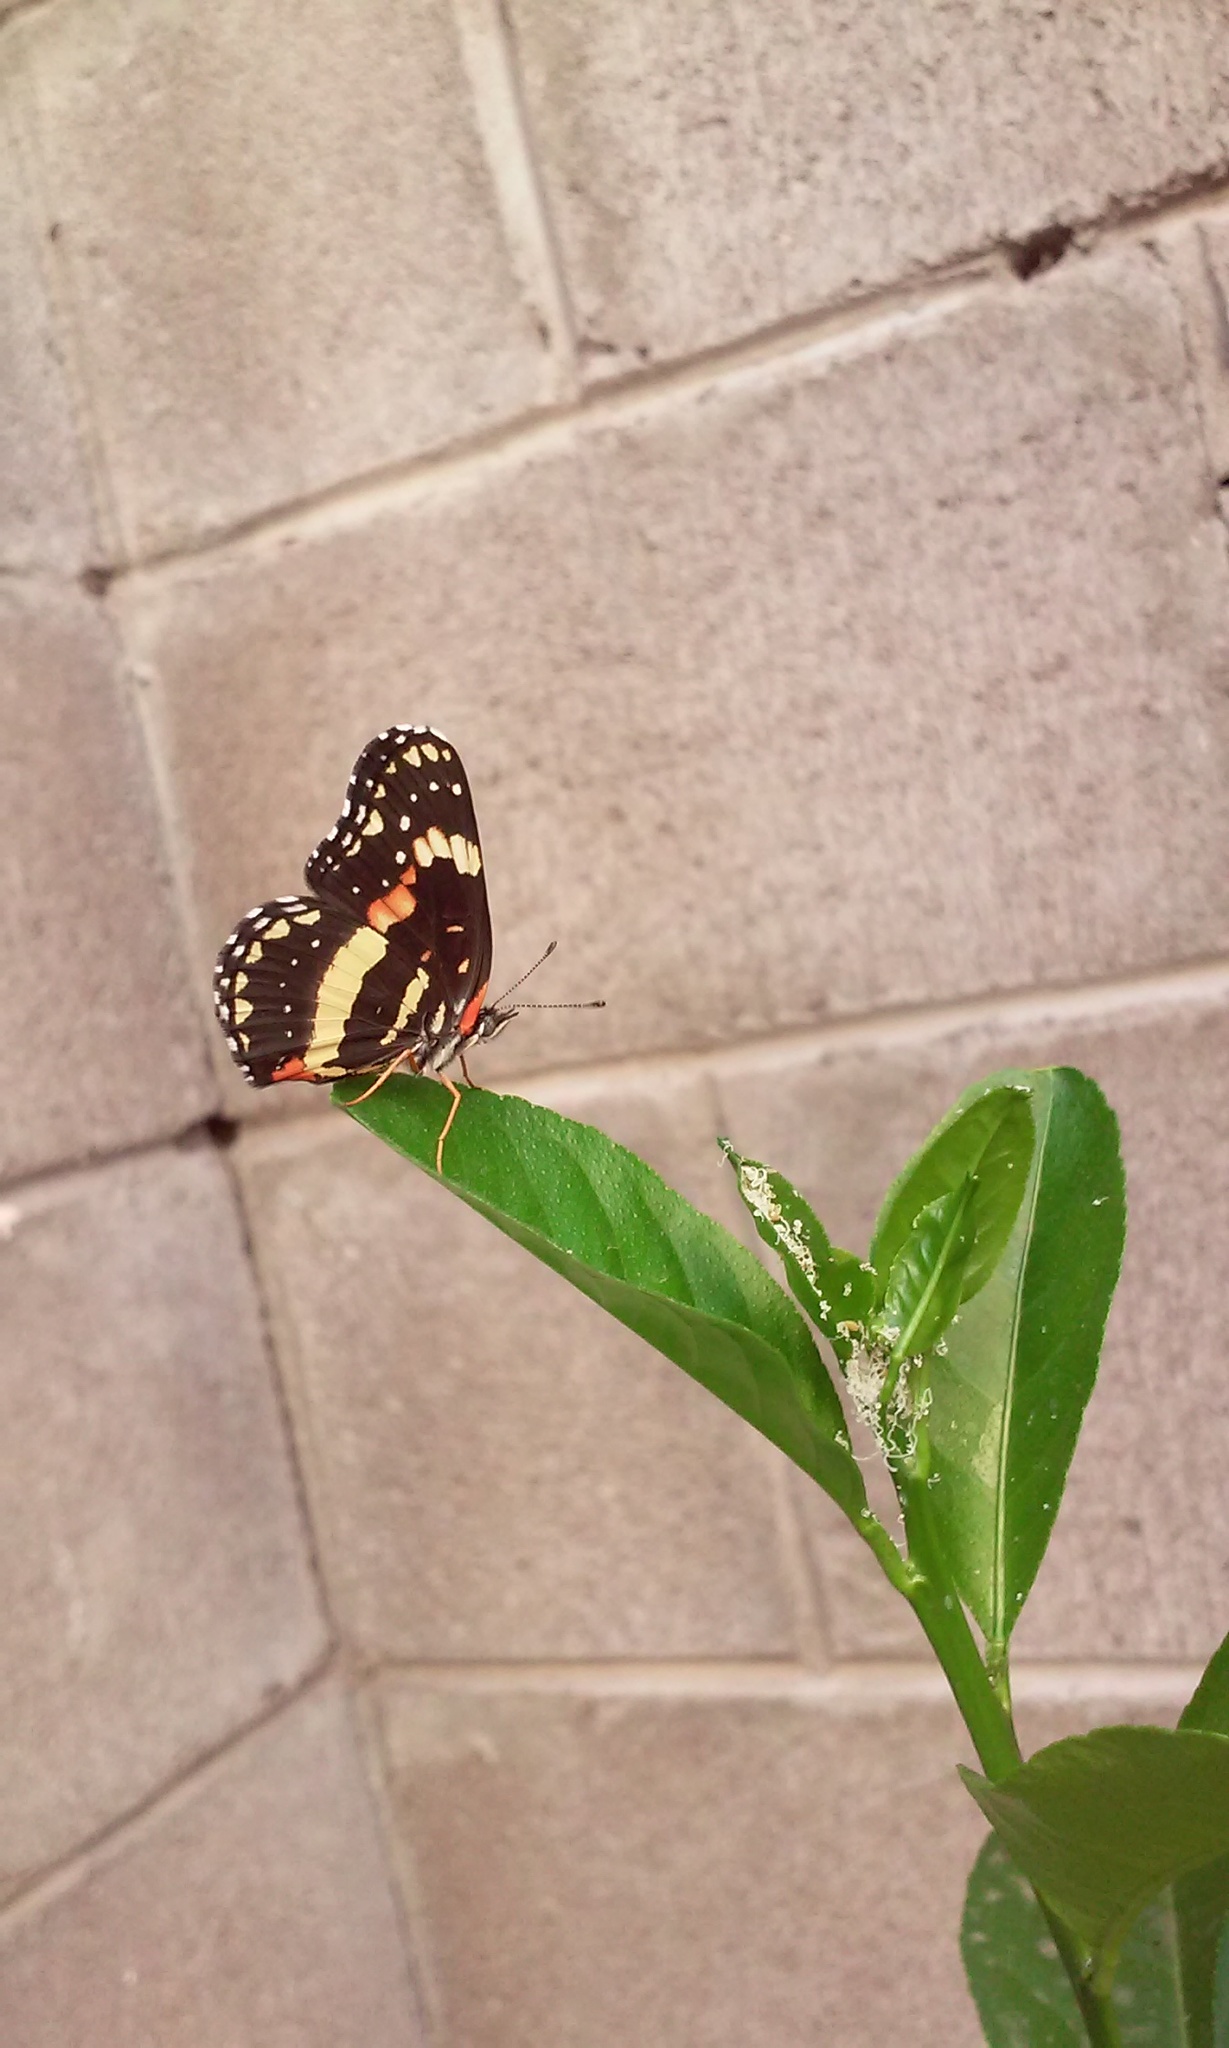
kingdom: Animalia
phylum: Arthropoda
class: Insecta
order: Lepidoptera
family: Nymphalidae
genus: Chlosyne
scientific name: Chlosyne lacinia
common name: Bordered patch
